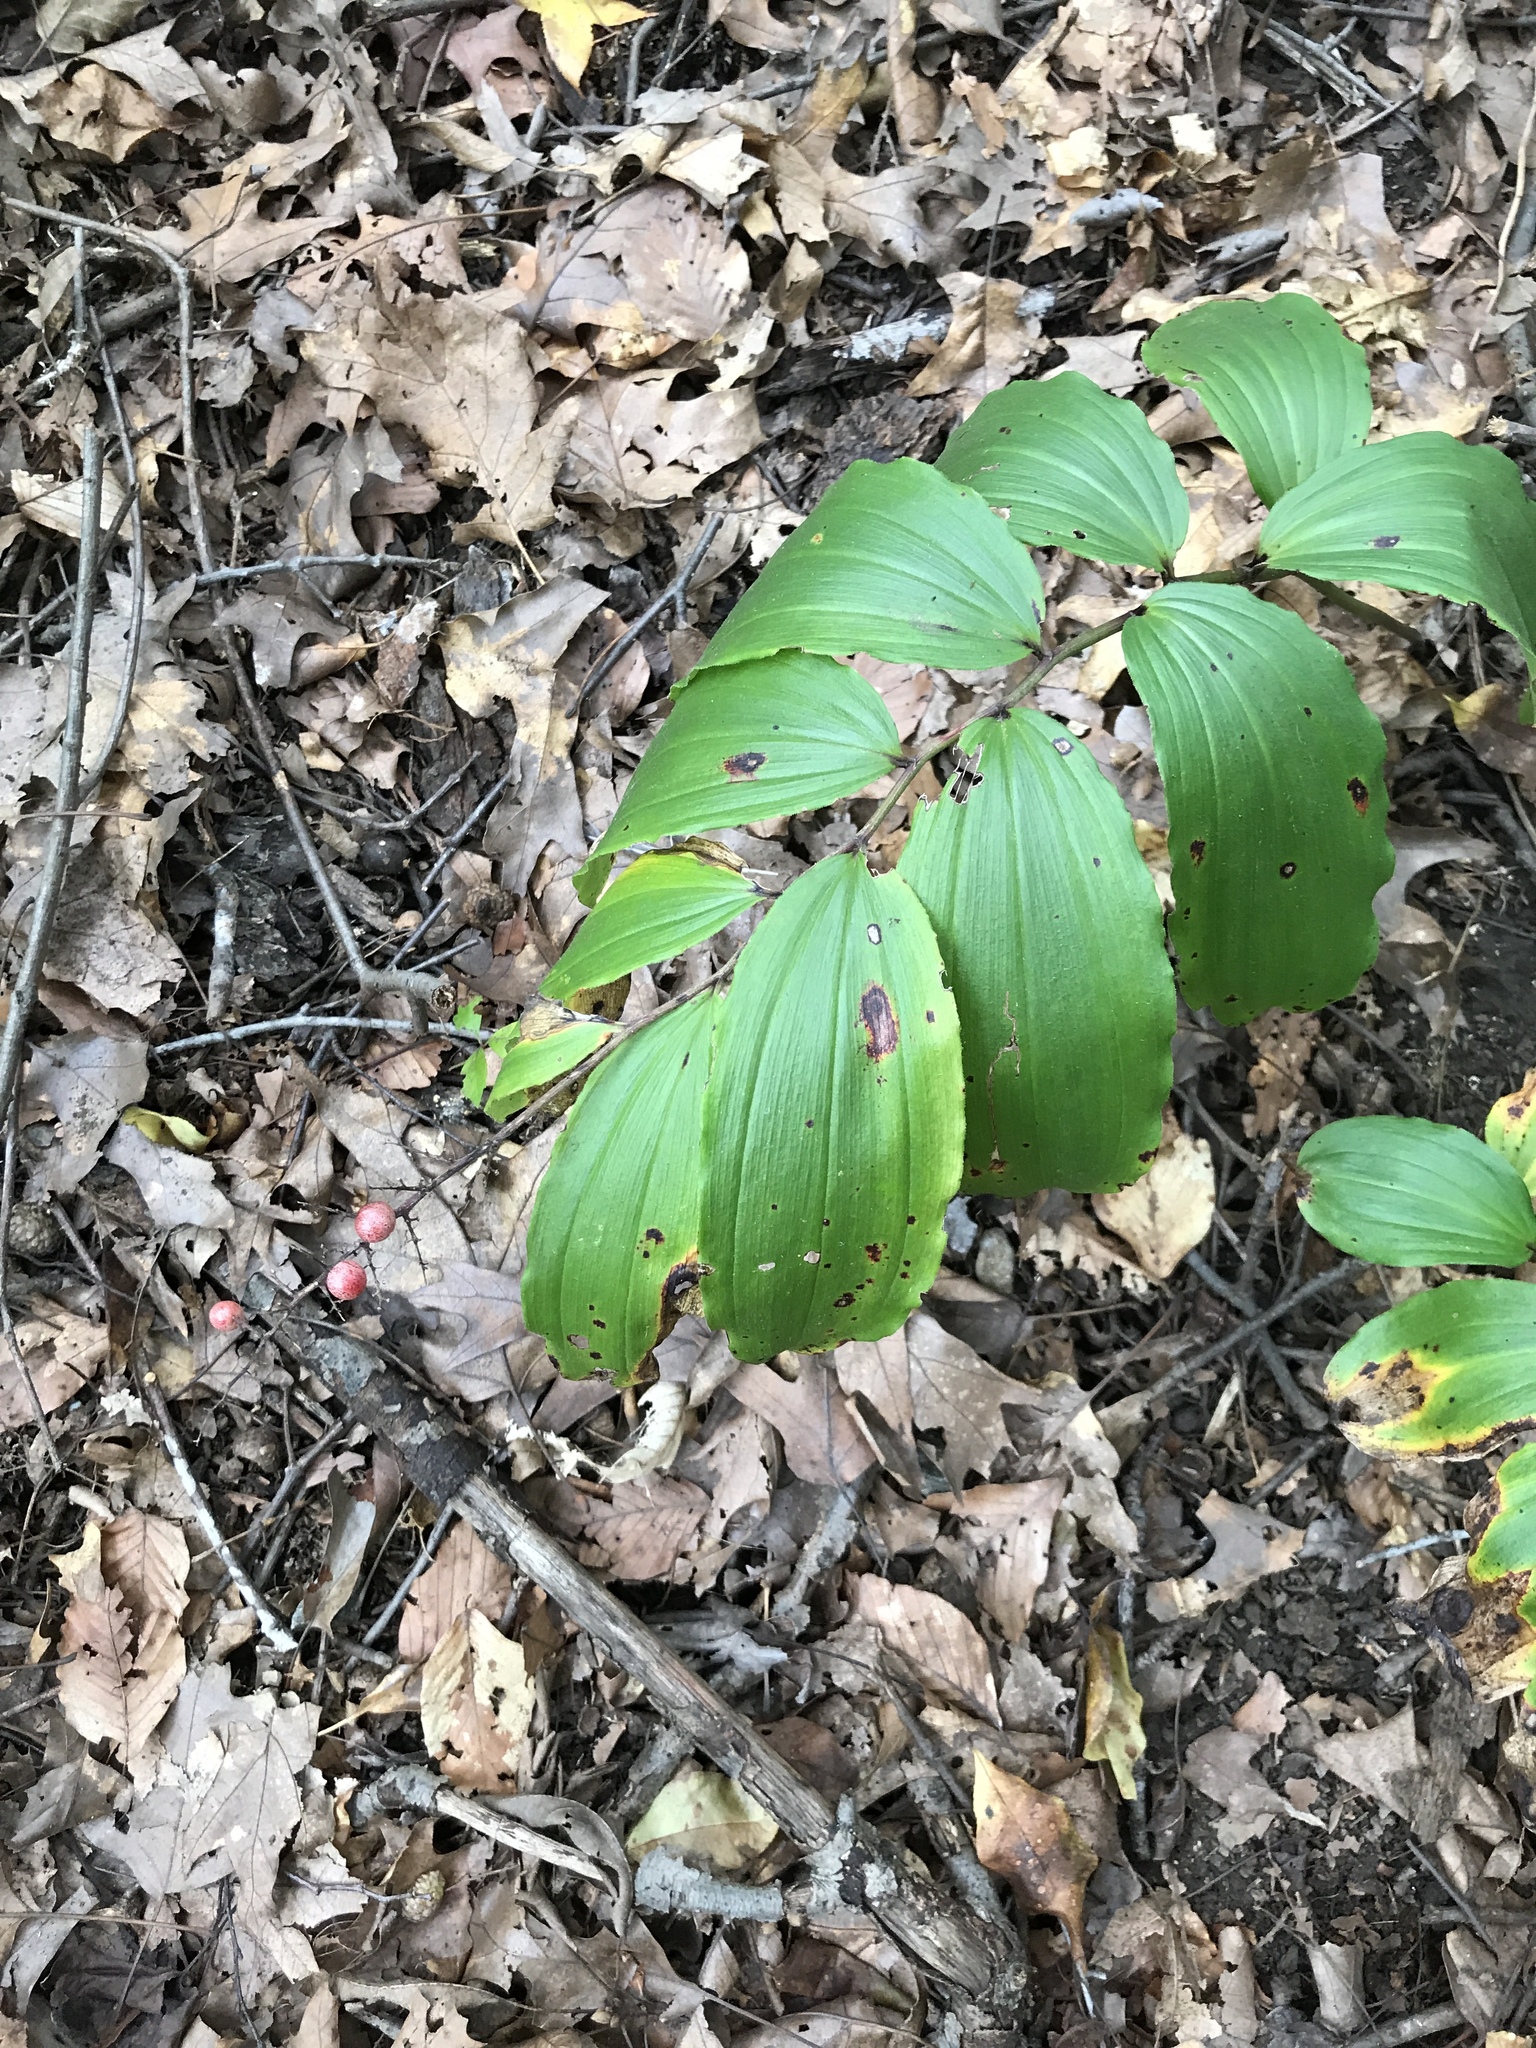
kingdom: Plantae
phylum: Tracheophyta
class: Liliopsida
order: Asparagales
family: Asparagaceae
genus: Maianthemum
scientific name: Maianthemum racemosum
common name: False spikenard
